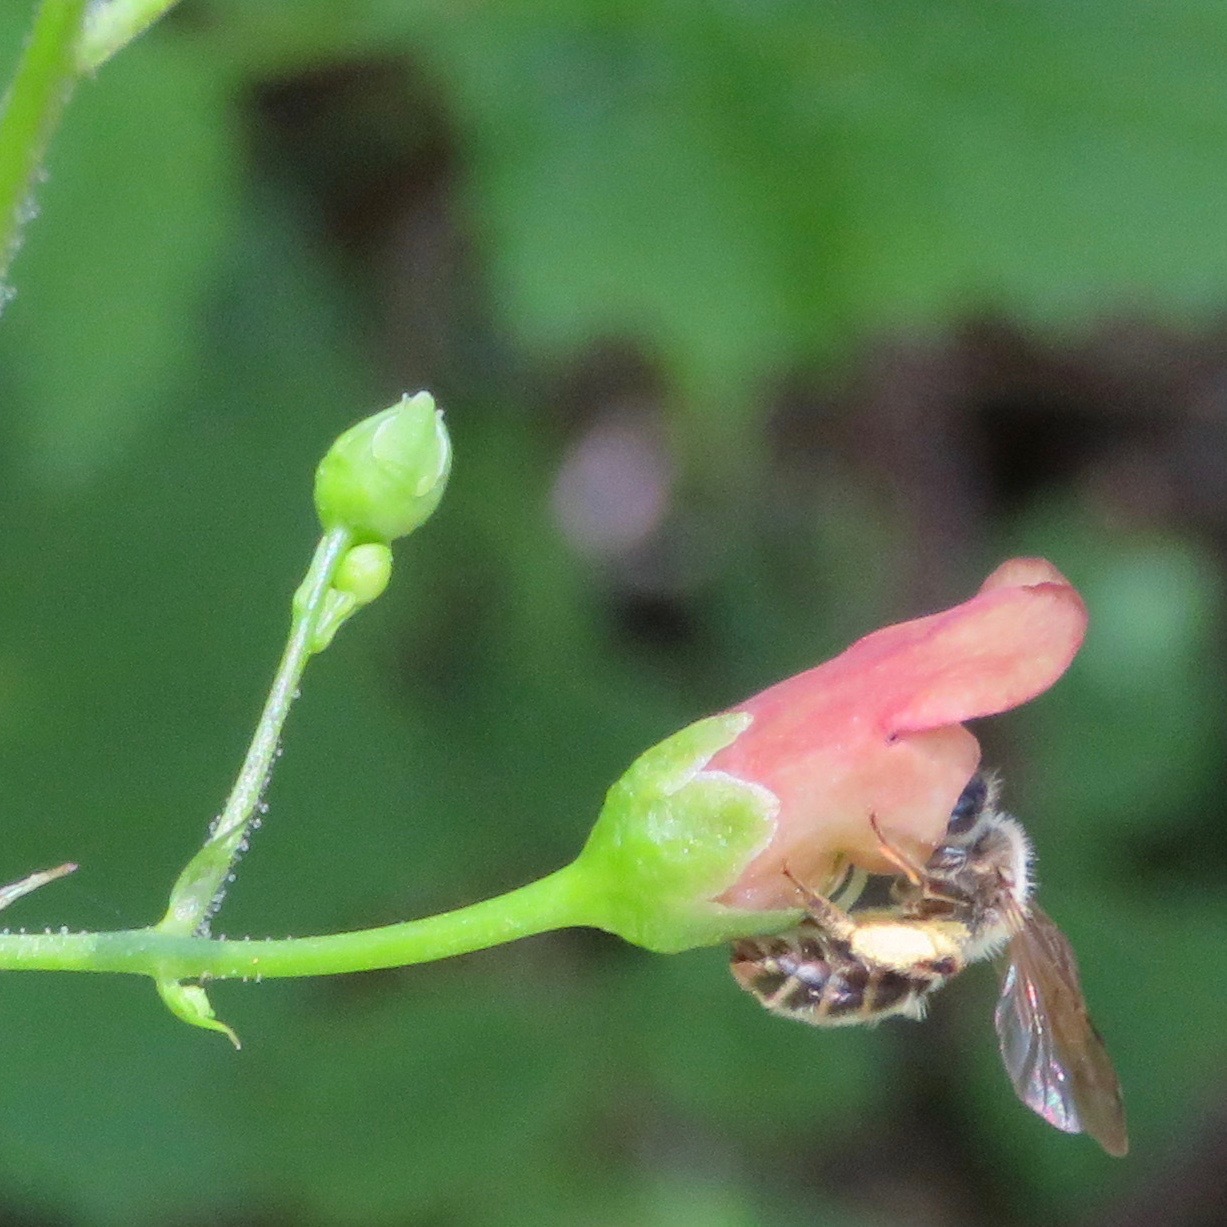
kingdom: Plantae
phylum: Tracheophyta
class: Magnoliopsida
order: Lamiales
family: Scrophulariaceae
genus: Scrophularia
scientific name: Scrophularia californica
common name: California figwort
